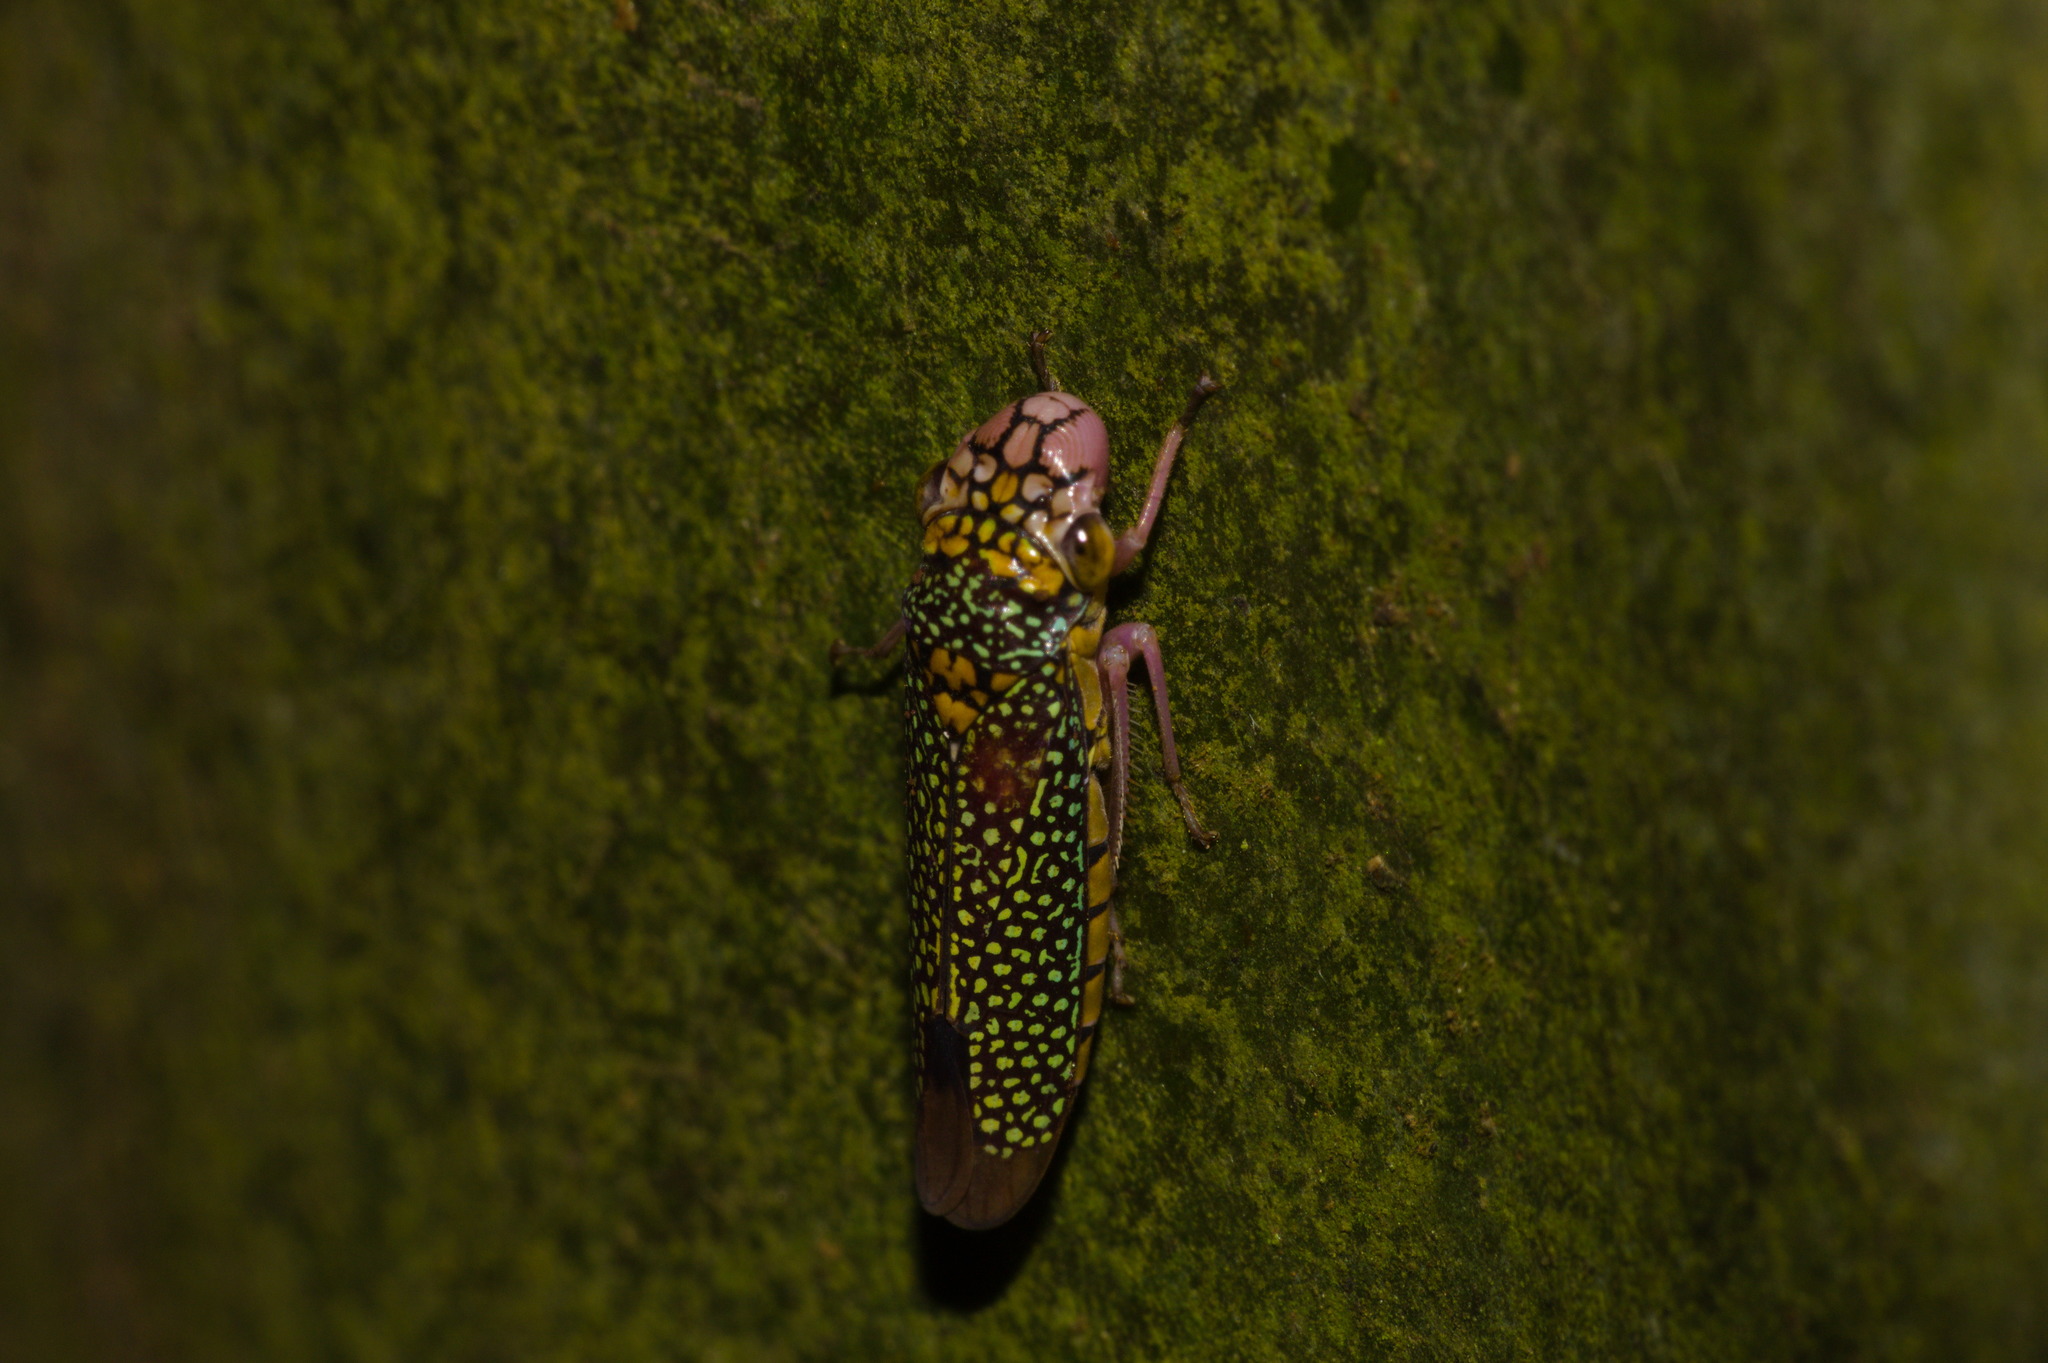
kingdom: Animalia
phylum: Arthropoda
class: Insecta
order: Hemiptera
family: Cicadellidae
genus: Molomea
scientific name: Molomea lineiceps
